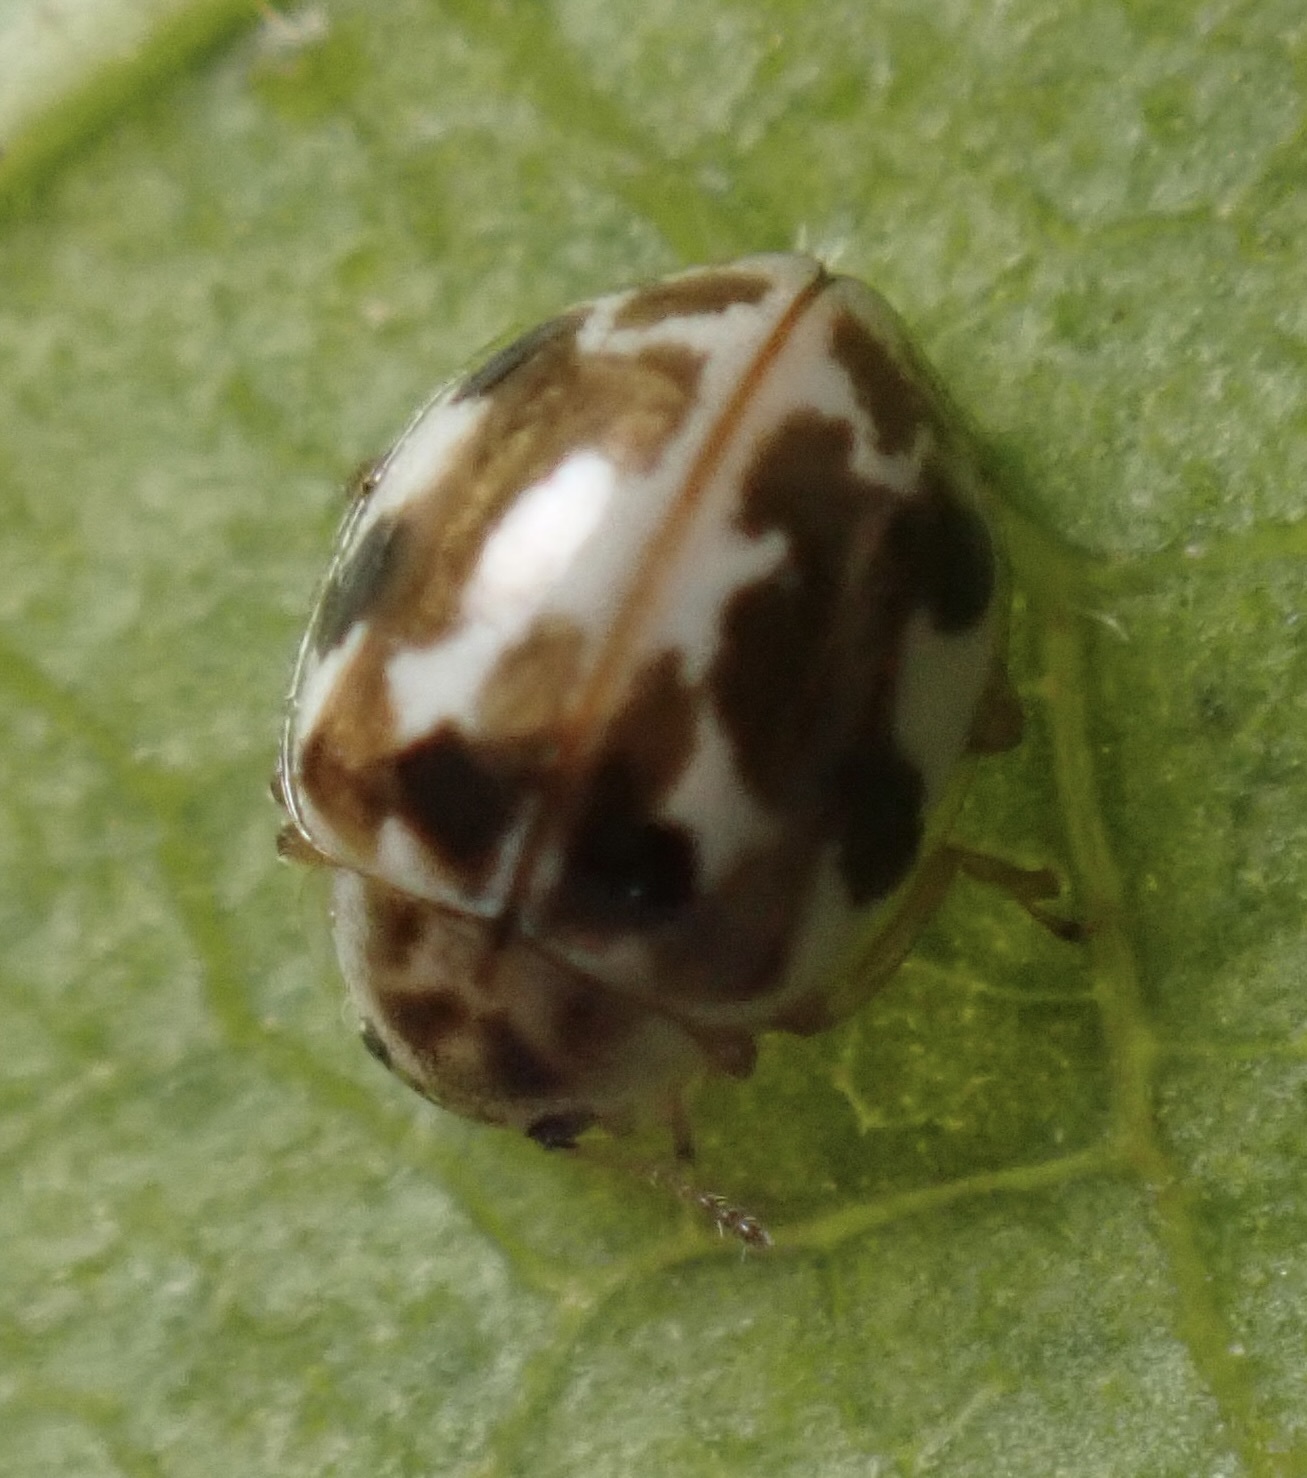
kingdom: Animalia
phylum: Arthropoda
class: Insecta
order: Coleoptera
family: Coccinellidae
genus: Psyllobora
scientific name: Psyllobora vigintimaculata
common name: Ladybird beetle
